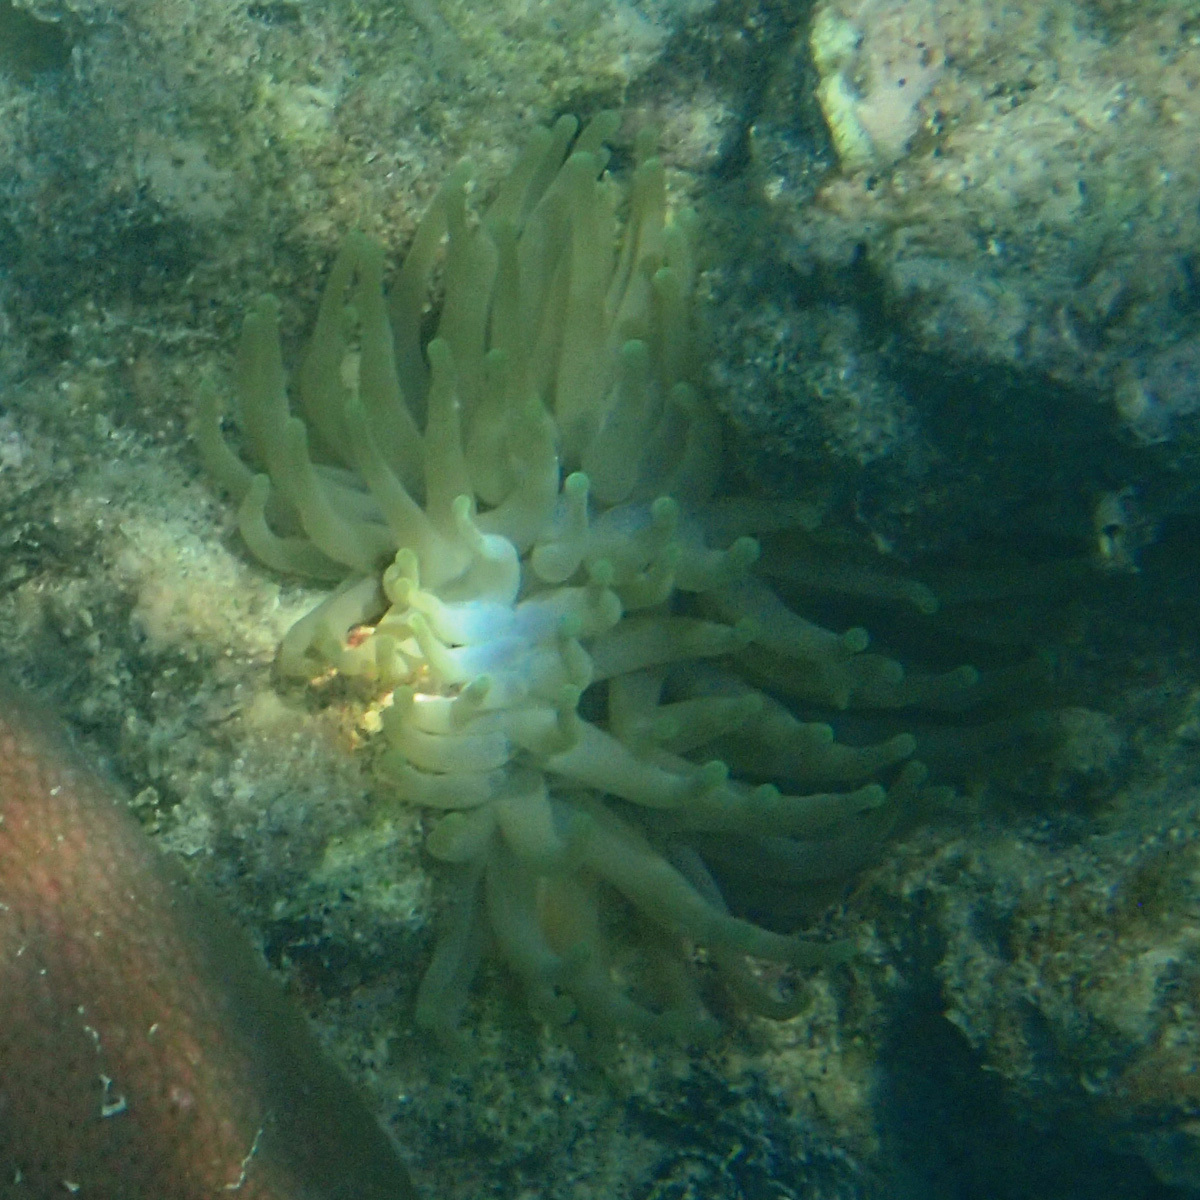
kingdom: Animalia
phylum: Cnidaria
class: Anthozoa
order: Actiniaria
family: Actiniidae
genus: Condylactis
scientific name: Condylactis gigantea
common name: Giant caribbean anemone
